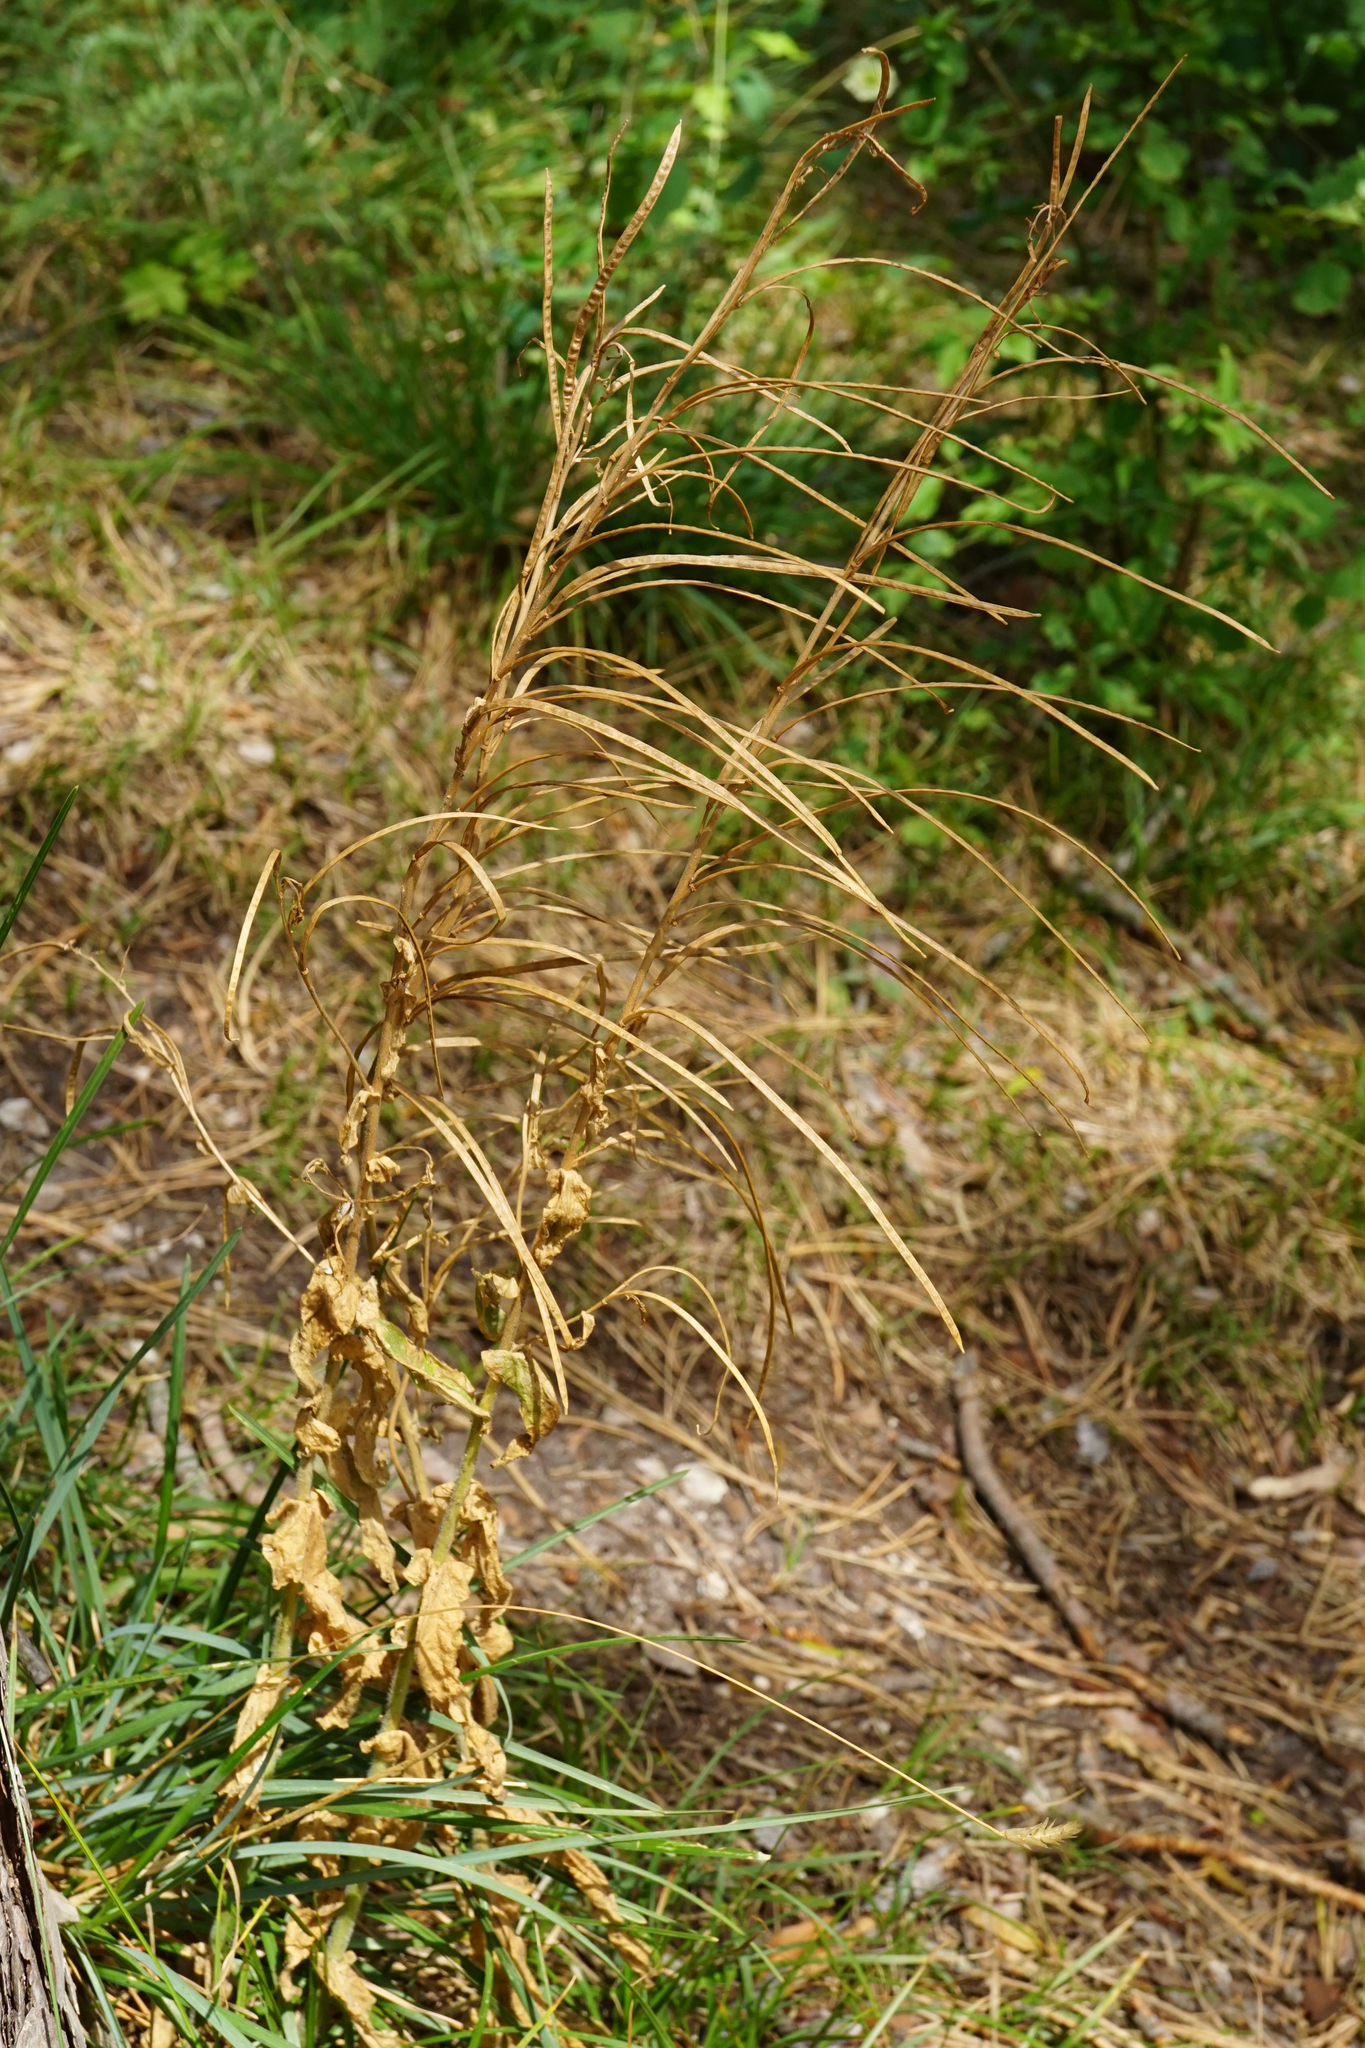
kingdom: Plantae
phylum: Tracheophyta
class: Magnoliopsida
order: Brassicales
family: Brassicaceae
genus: Pseudoturritis
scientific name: Pseudoturritis turrita
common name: Tower cress
